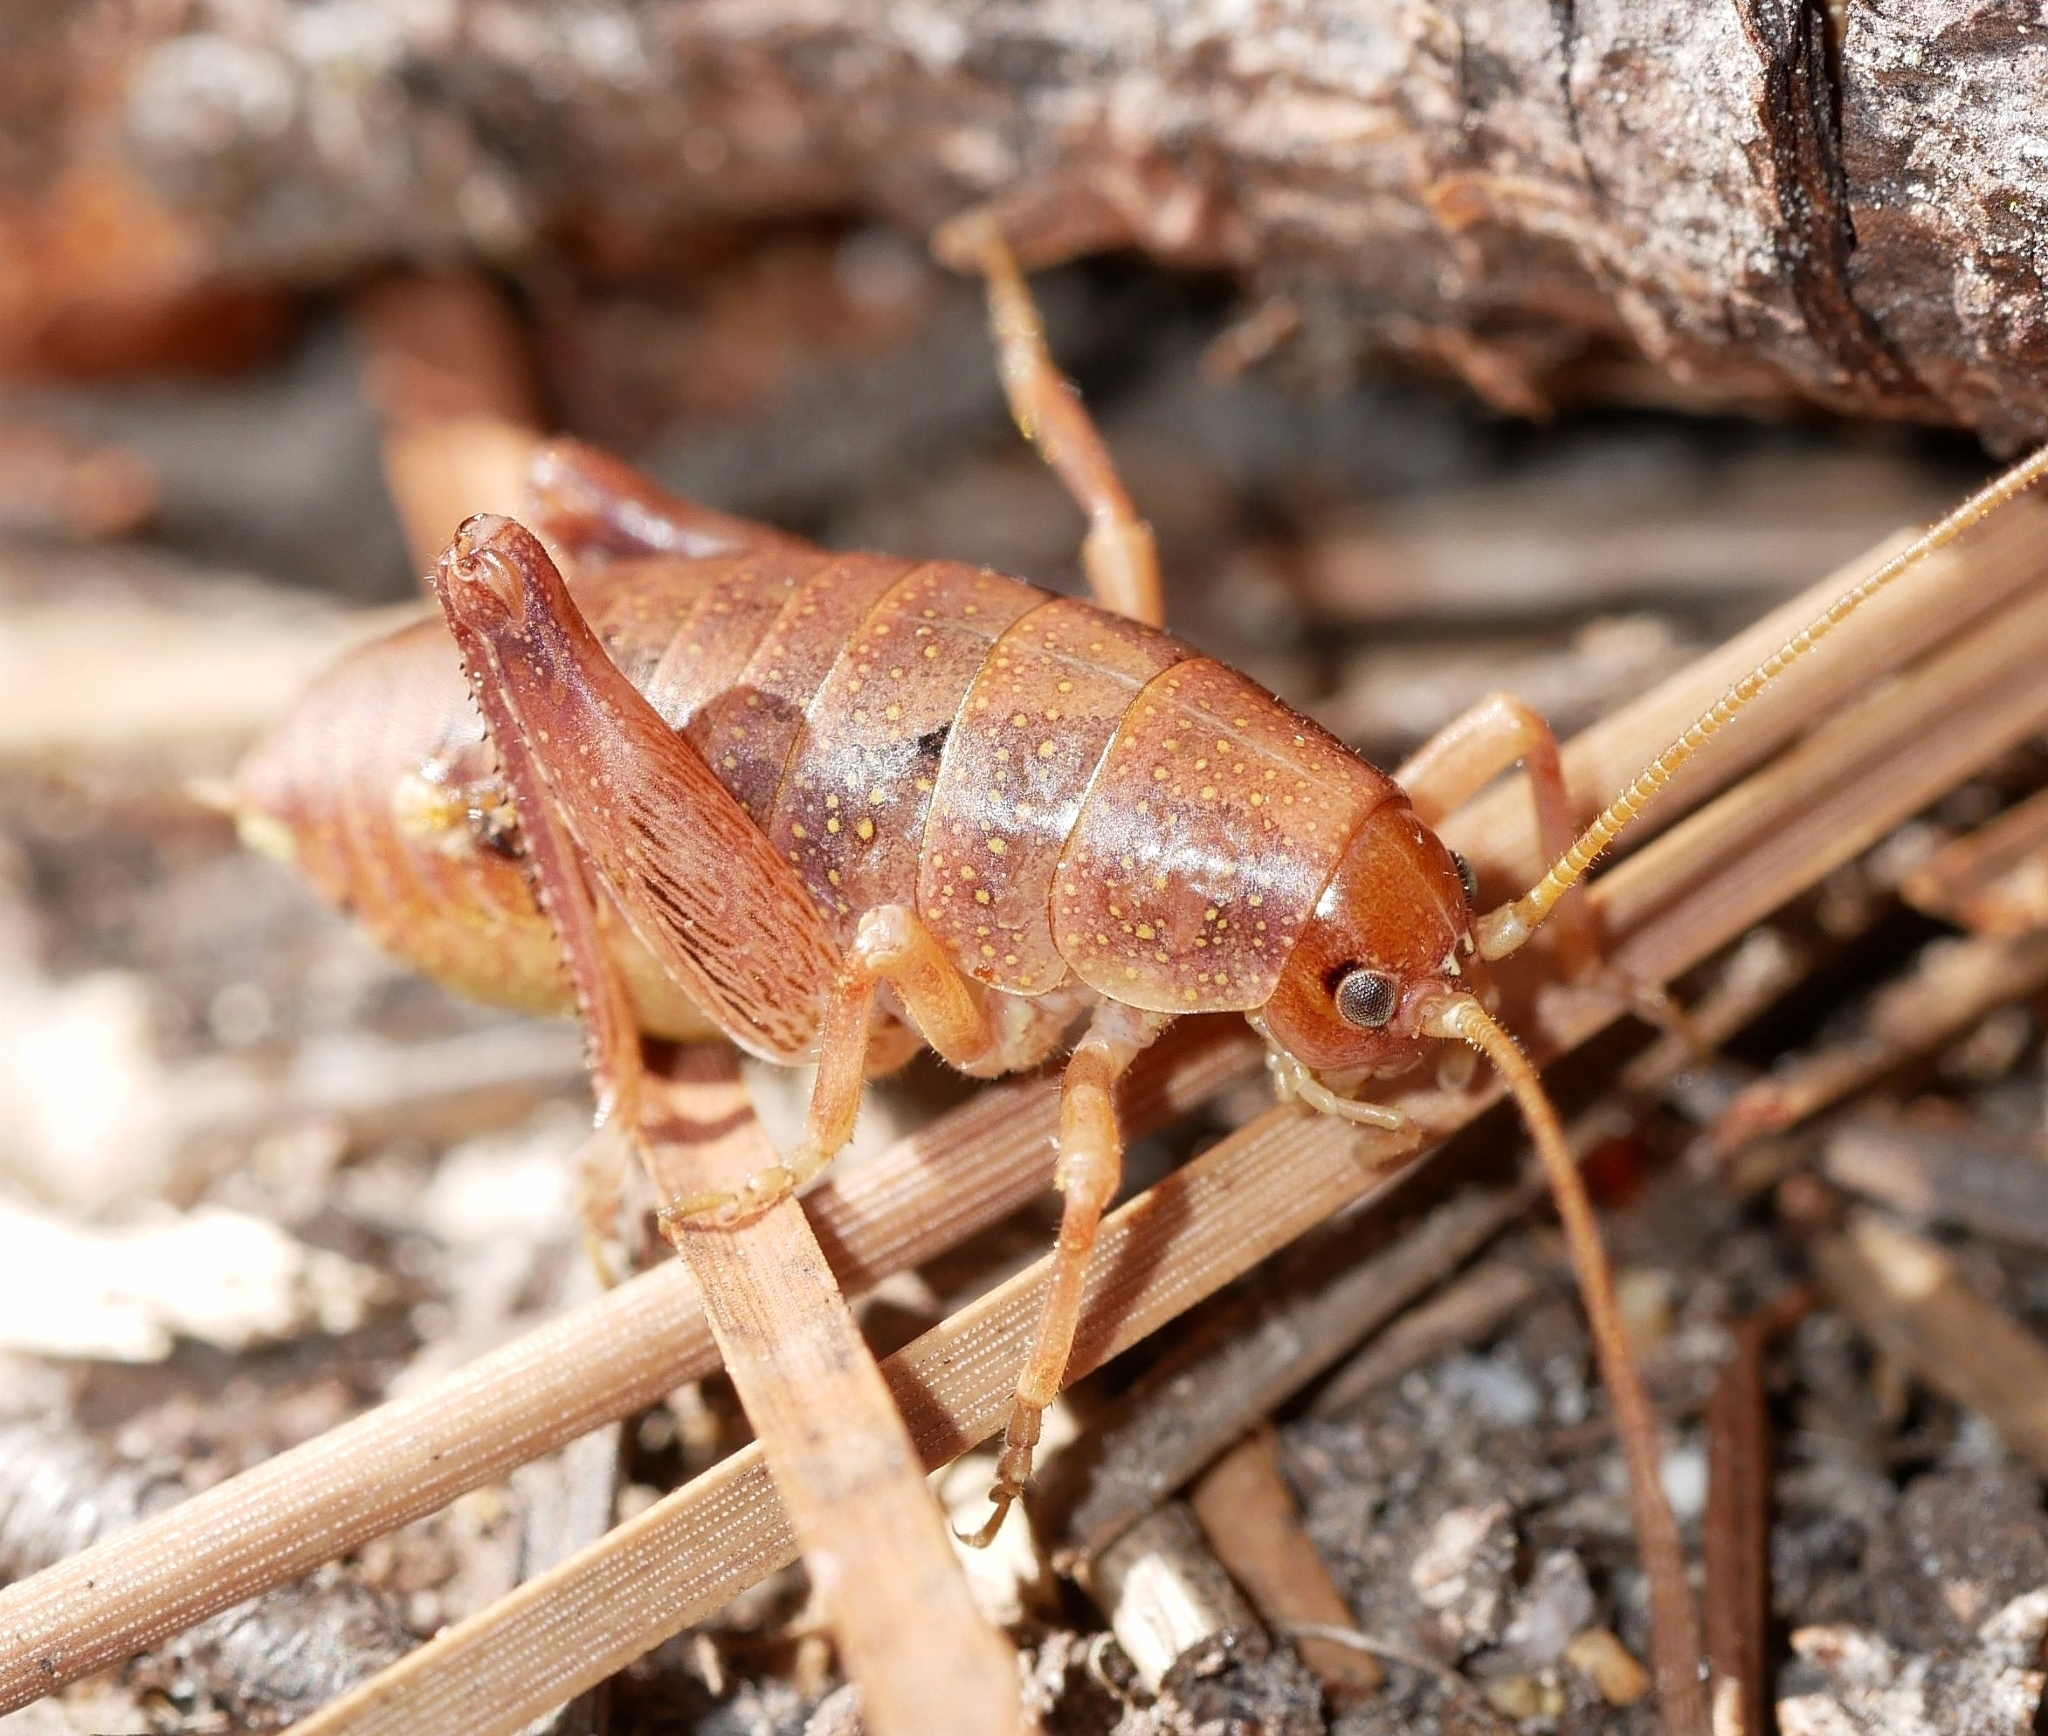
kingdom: Animalia
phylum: Arthropoda
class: Insecta
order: Orthoptera
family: Rhaphidophoridae
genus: Gammarotettix
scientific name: Gammarotettix bilobatus
